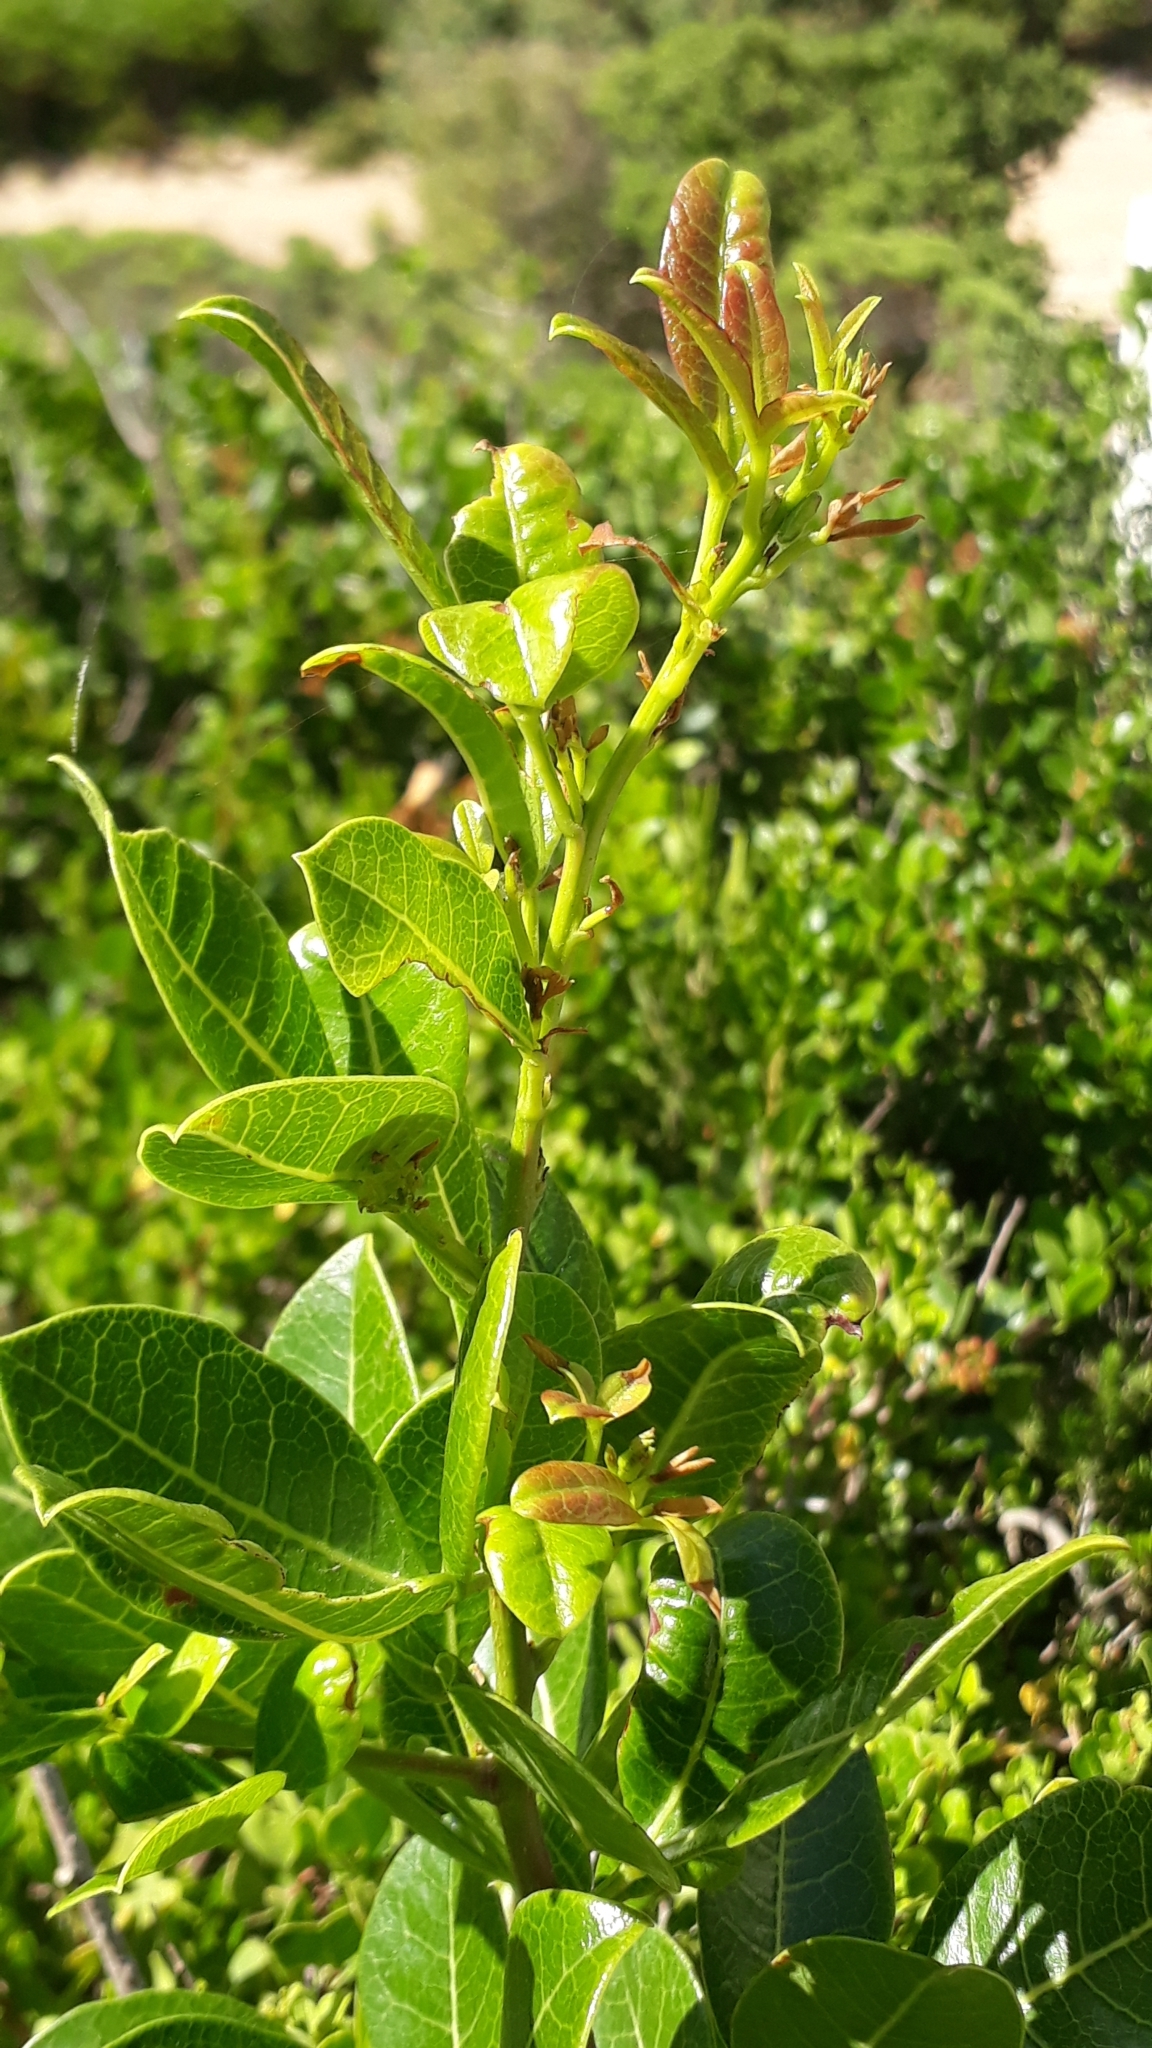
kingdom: Plantae
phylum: Tracheophyta
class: Magnoliopsida
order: Sapindales
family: Anacardiaceae
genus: Searsia
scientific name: Searsia laevigata
